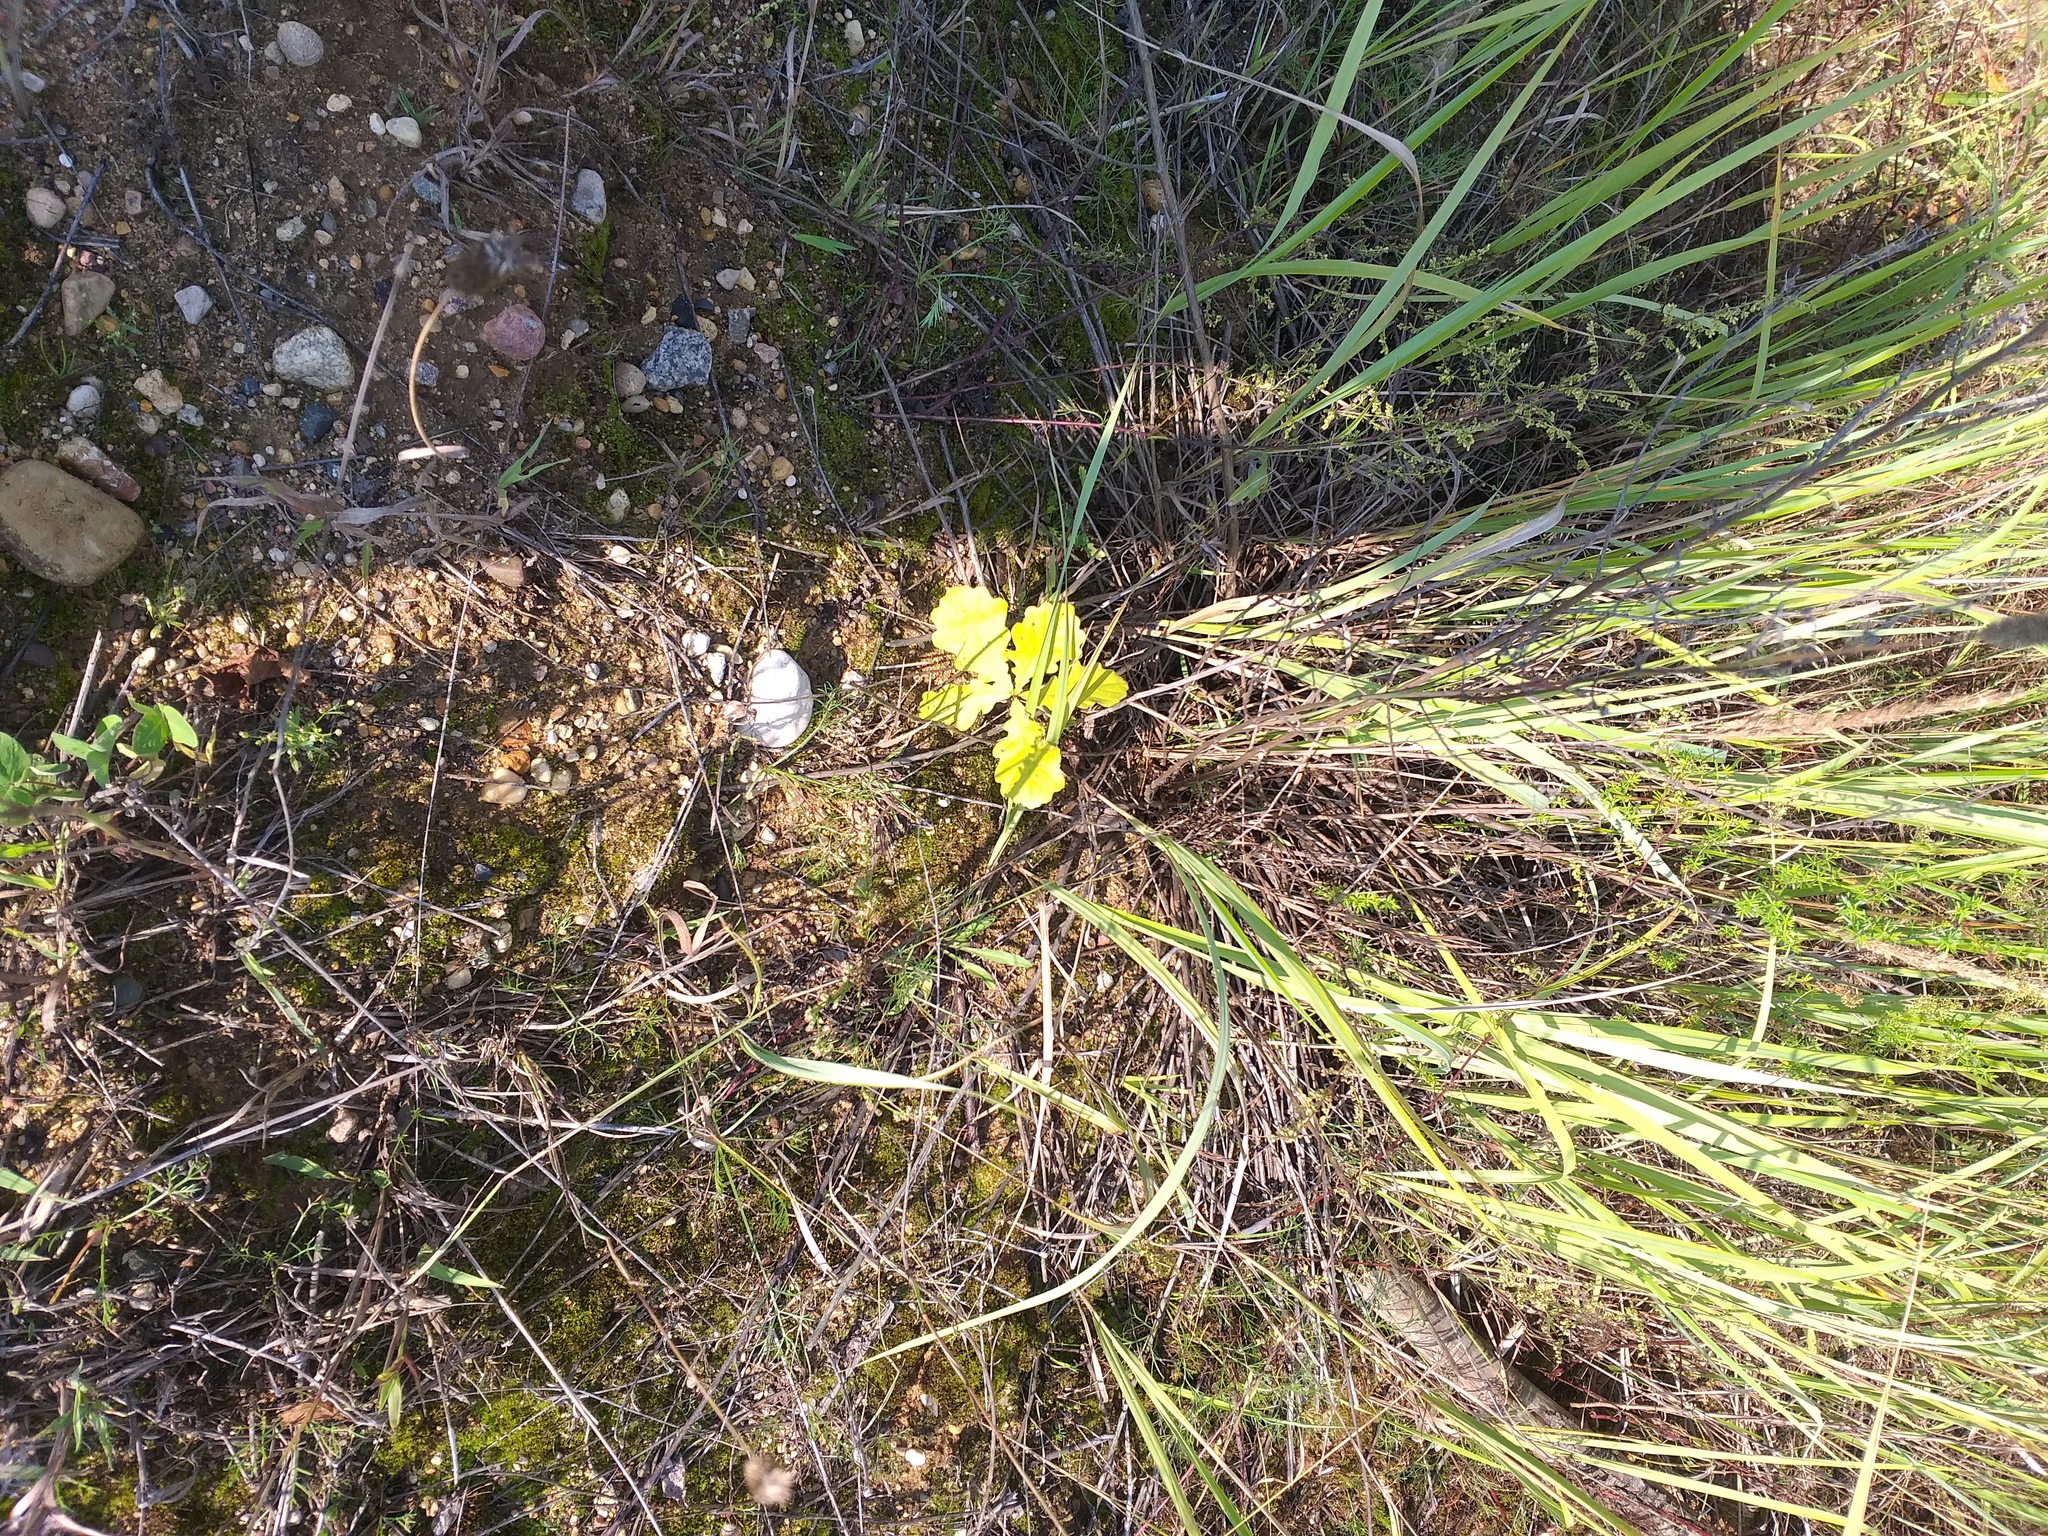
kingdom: Plantae
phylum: Tracheophyta
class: Magnoliopsida
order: Fagales
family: Fagaceae
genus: Quercus
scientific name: Quercus robur
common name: Pedunculate oak
